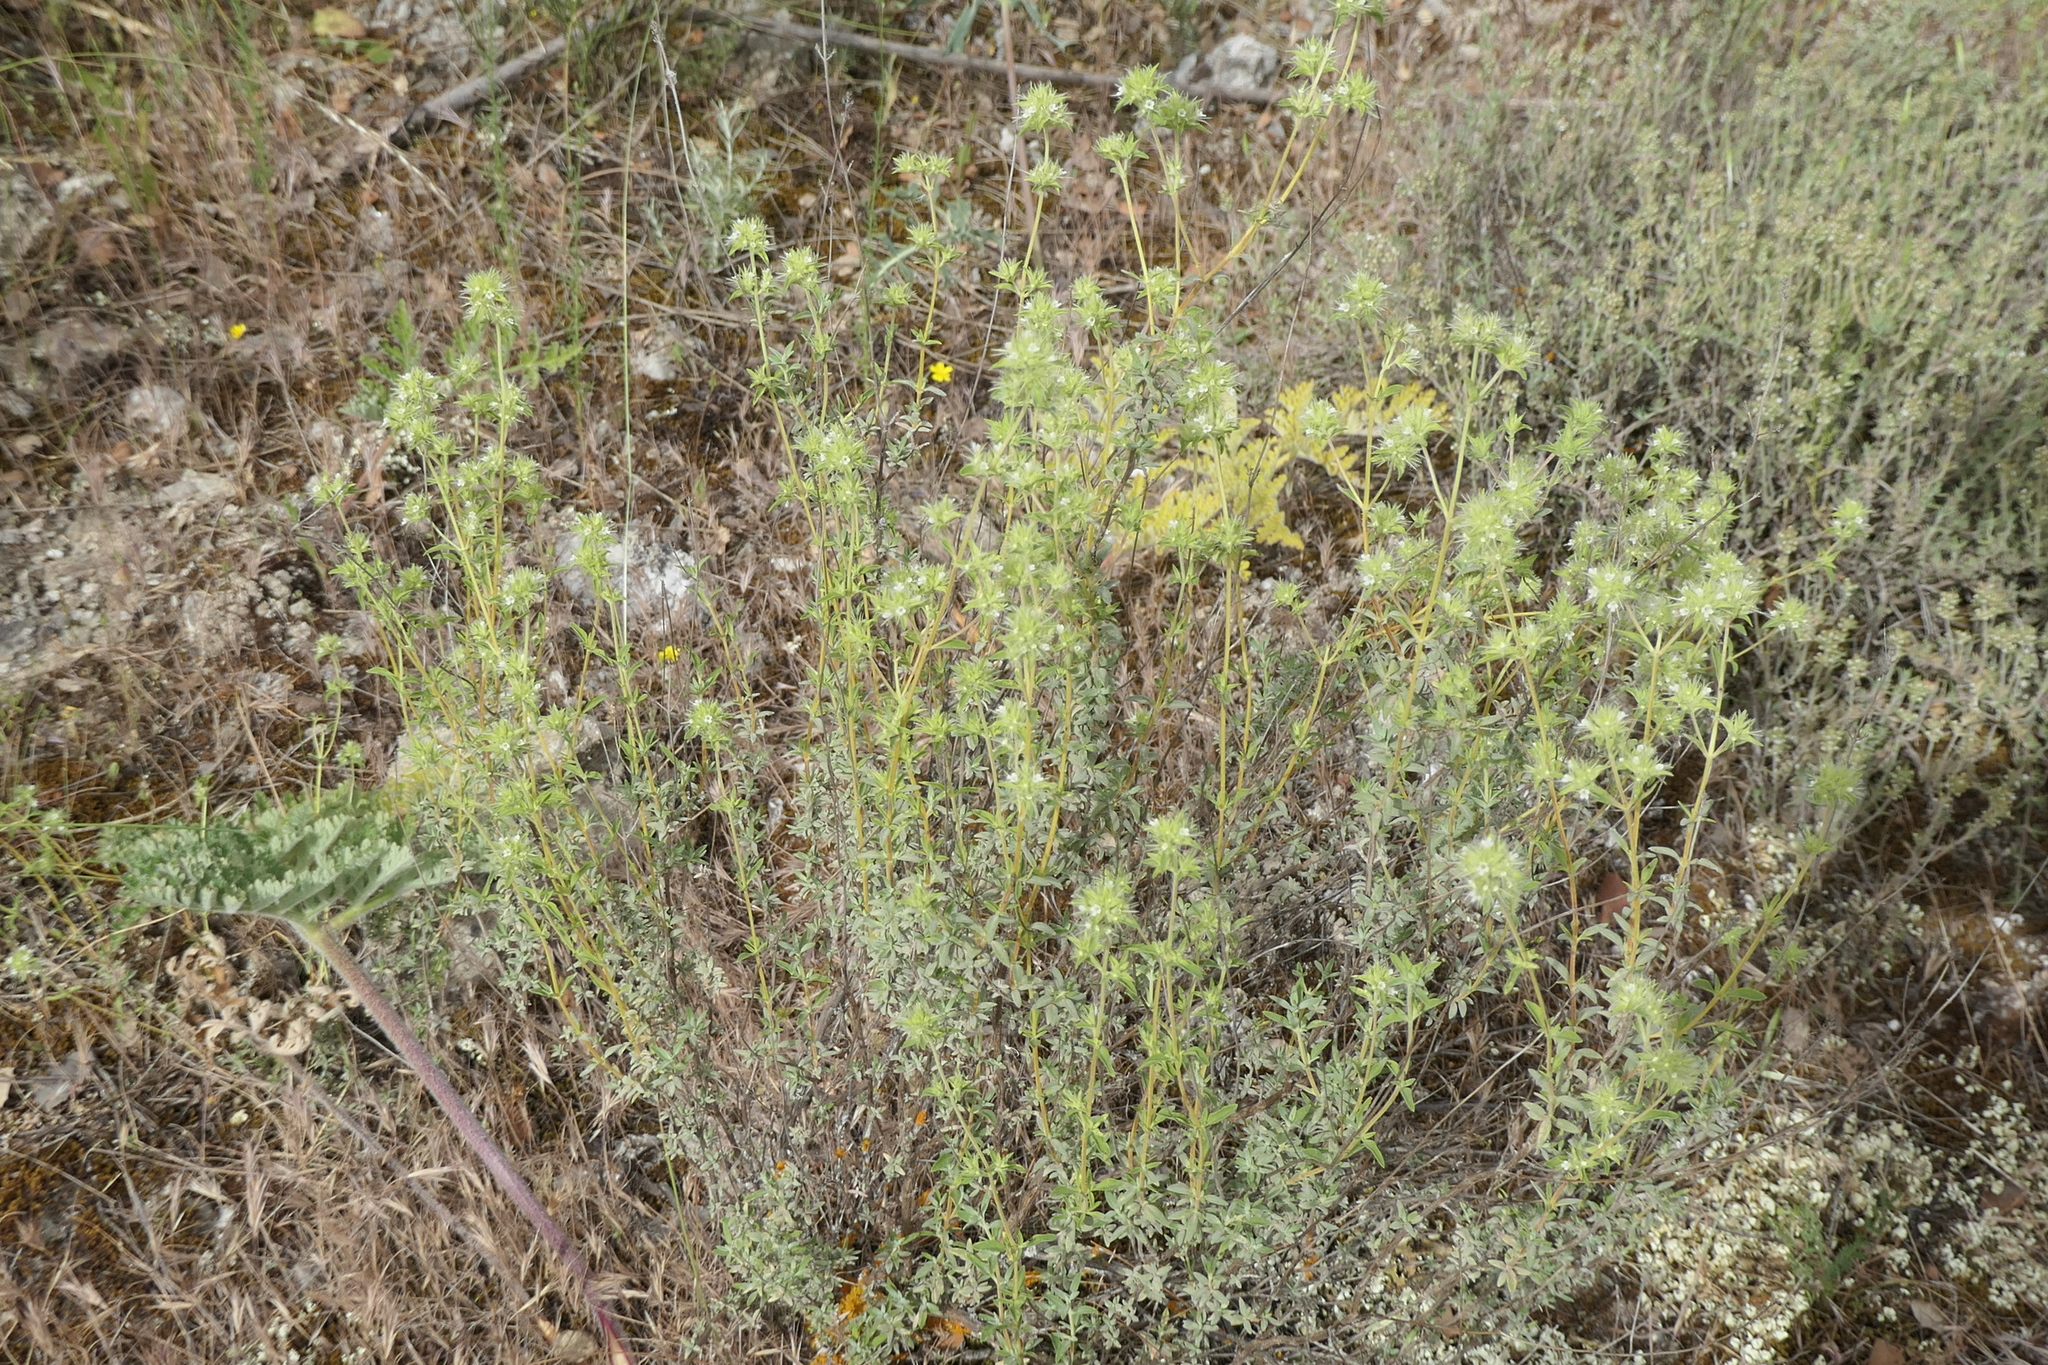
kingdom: Plantae
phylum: Tracheophyta
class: Magnoliopsida
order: Lamiales
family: Lamiaceae
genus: Thymus
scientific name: Thymus mastichina
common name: Mastic thyme
